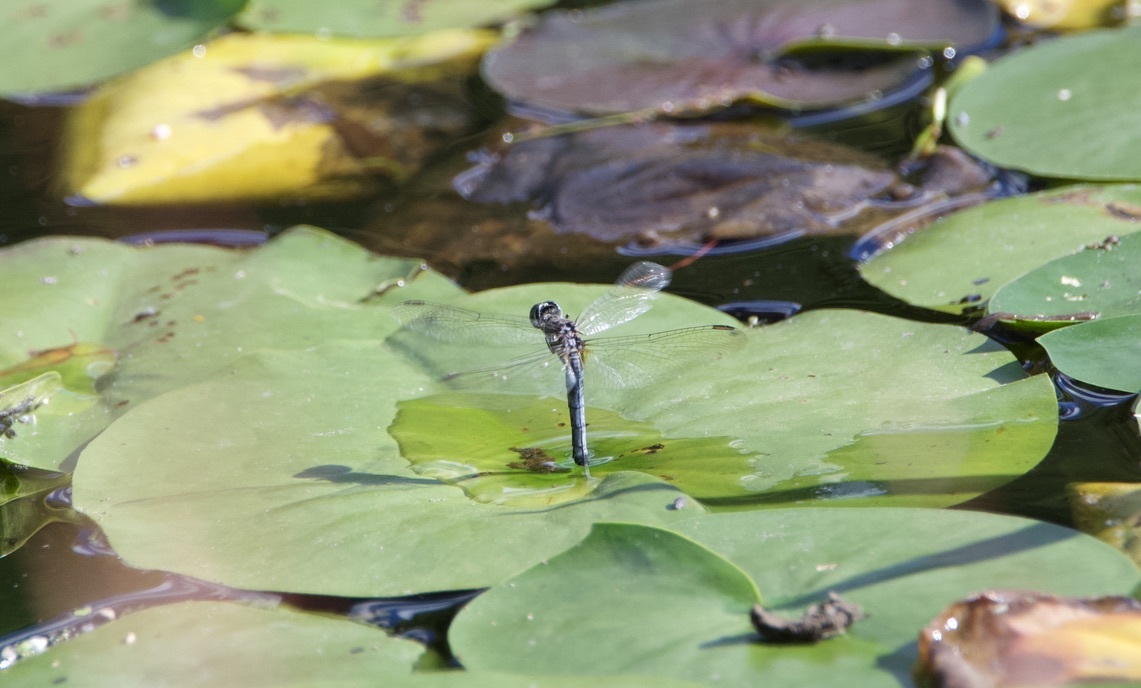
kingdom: Animalia
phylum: Arthropoda
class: Insecta
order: Odonata
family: Libellulidae
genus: Pachydiplax
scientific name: Pachydiplax longipennis
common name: Blue dasher
